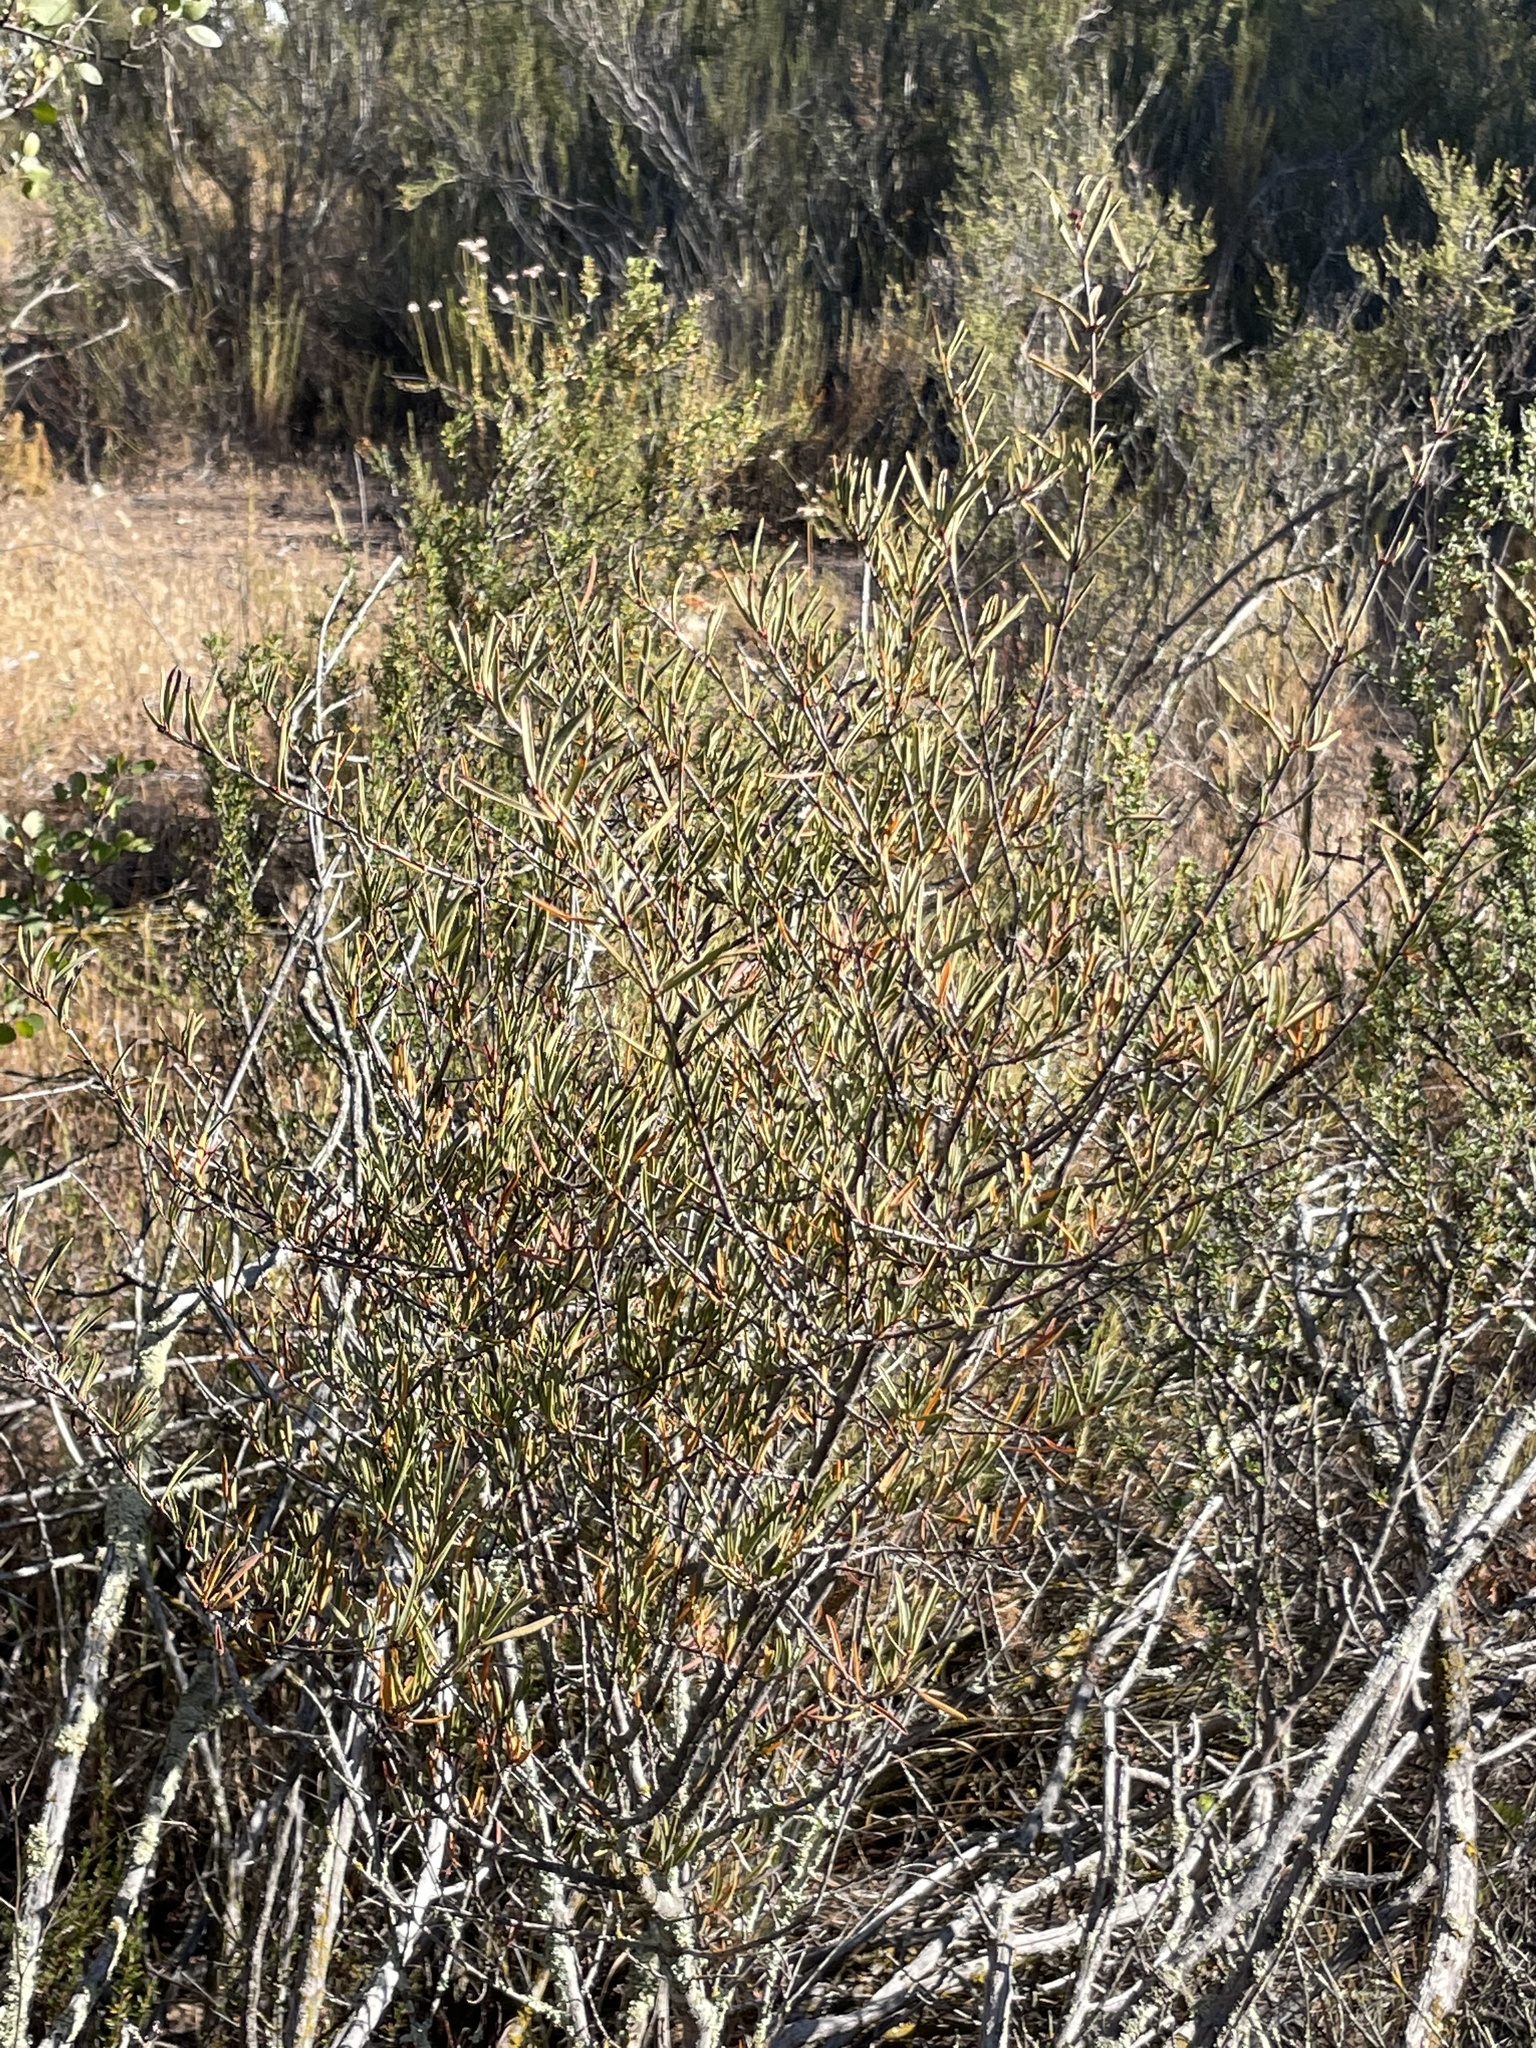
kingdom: Plantae
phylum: Tracheophyta
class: Magnoliopsida
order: Malpighiales
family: Picrodendraceae
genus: Tetracoccus
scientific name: Tetracoccus dioicus
